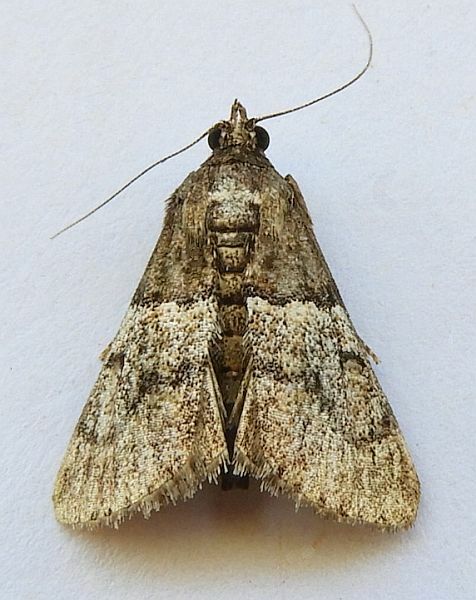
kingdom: Animalia
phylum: Arthropoda
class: Insecta
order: Lepidoptera
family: Pyralidae
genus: Macalla
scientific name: Macalla zelleri
